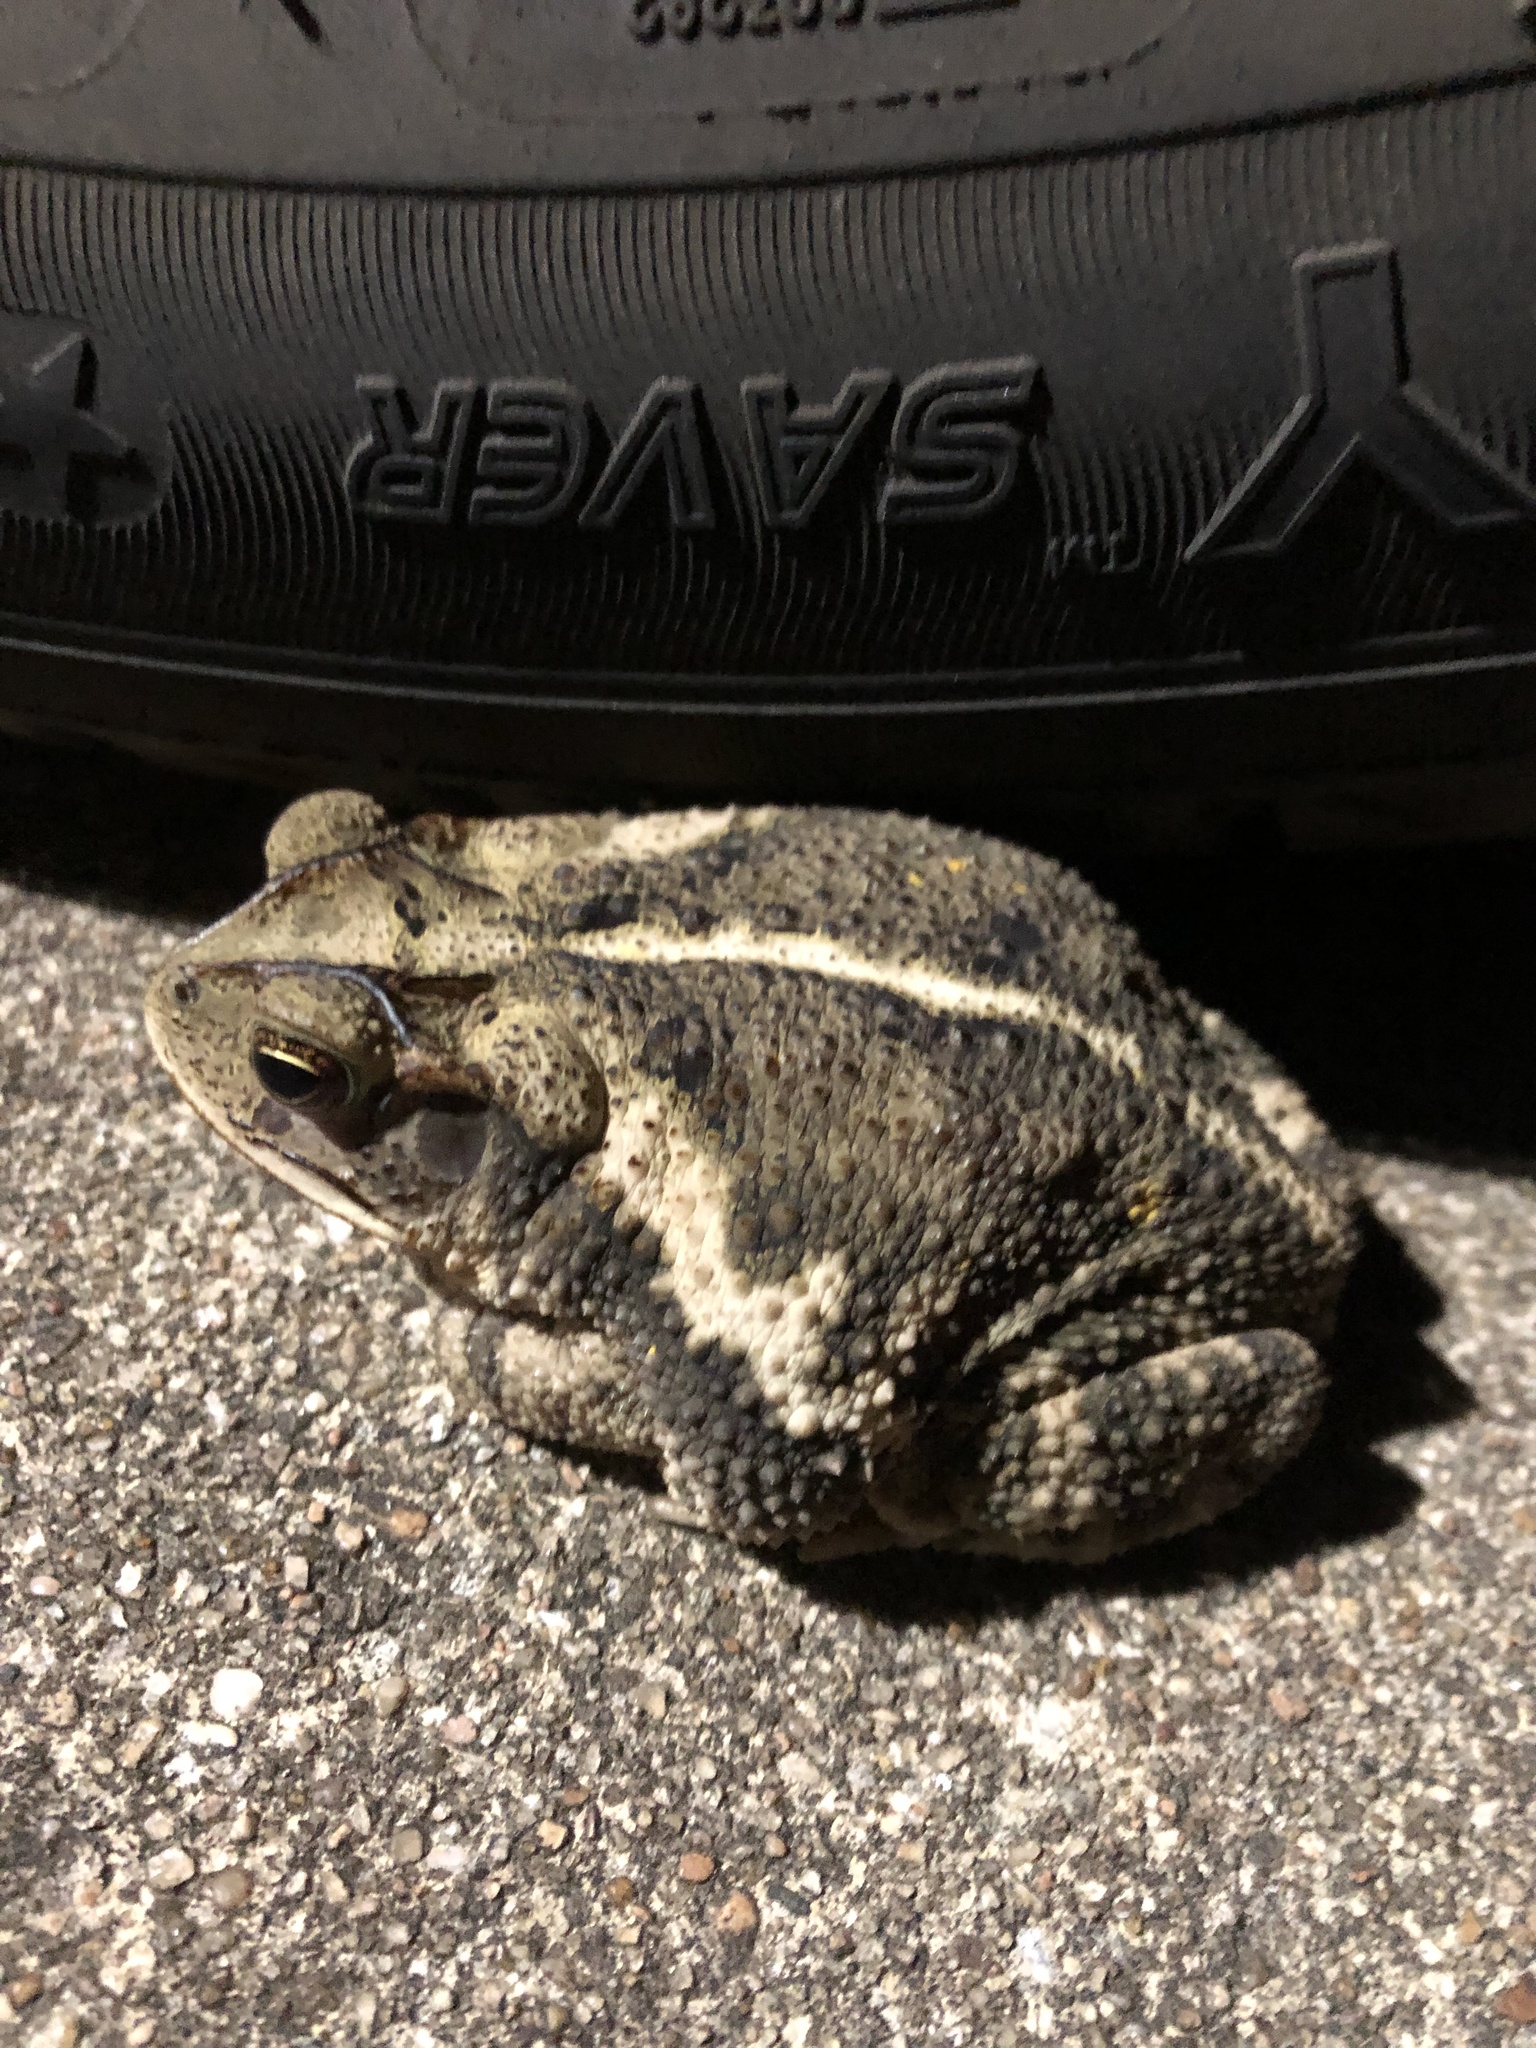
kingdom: Animalia
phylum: Chordata
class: Amphibia
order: Anura
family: Bufonidae
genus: Incilius
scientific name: Incilius nebulifer
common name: Gulf coast toad
